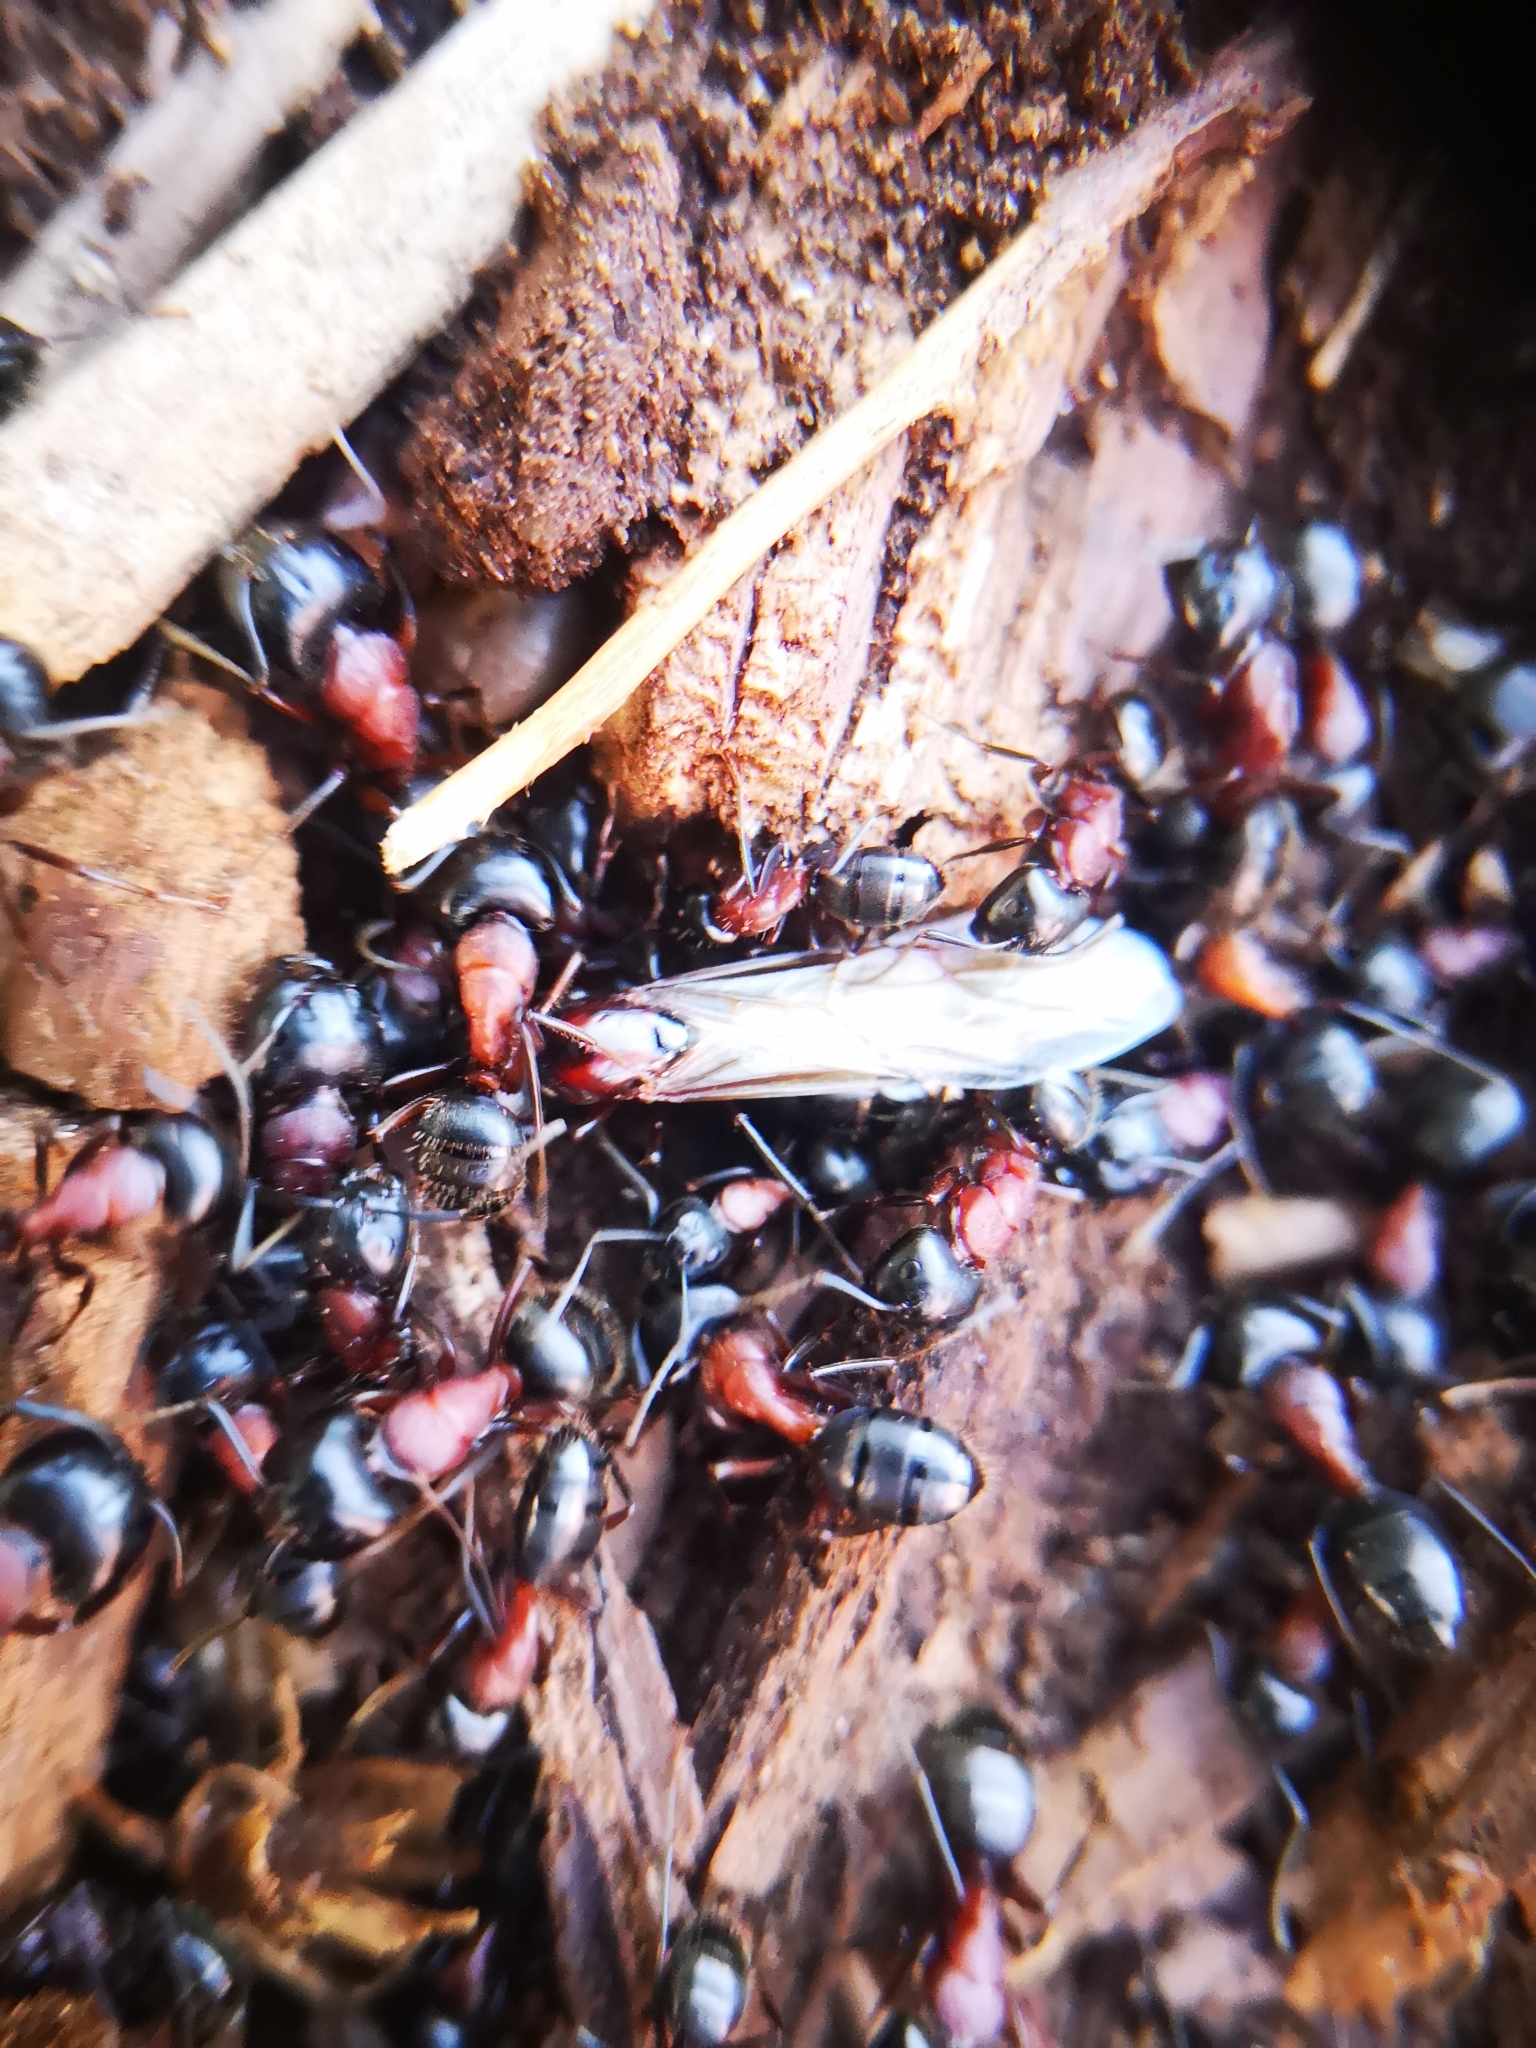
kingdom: Animalia
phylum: Arthropoda
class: Insecta
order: Hymenoptera
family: Formicidae
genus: Camponotus
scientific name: Camponotus novaeboracensis
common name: New york carpenter ant
